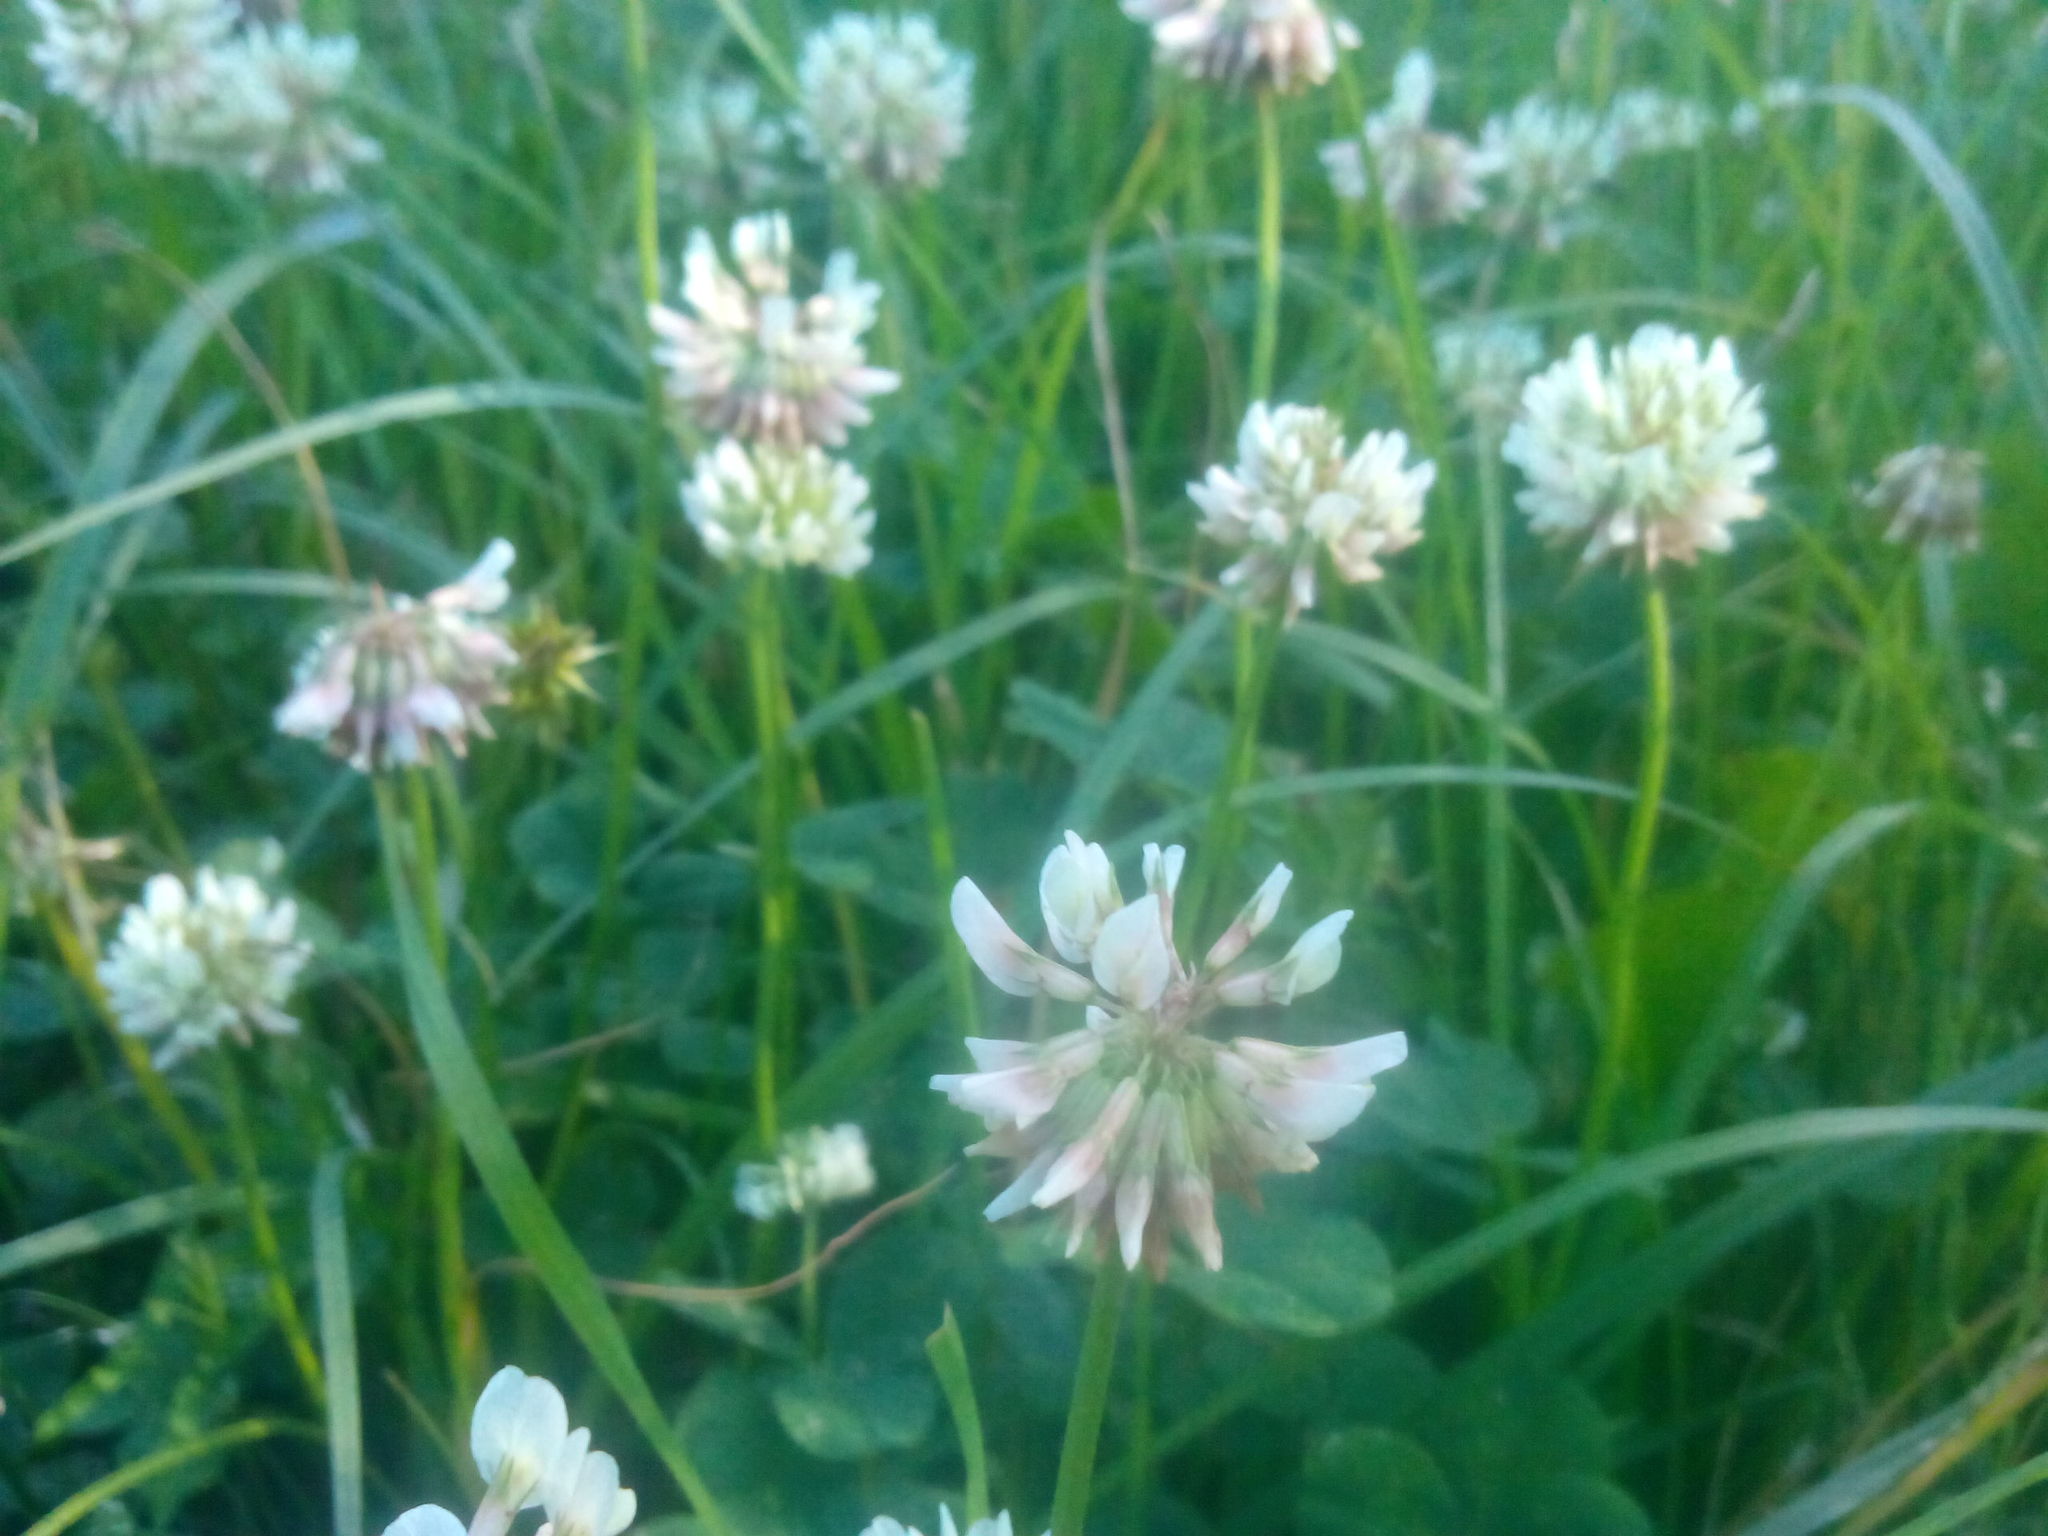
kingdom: Plantae
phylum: Tracheophyta
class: Magnoliopsida
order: Fabales
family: Fabaceae
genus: Trifolium
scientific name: Trifolium repens
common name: White clover
